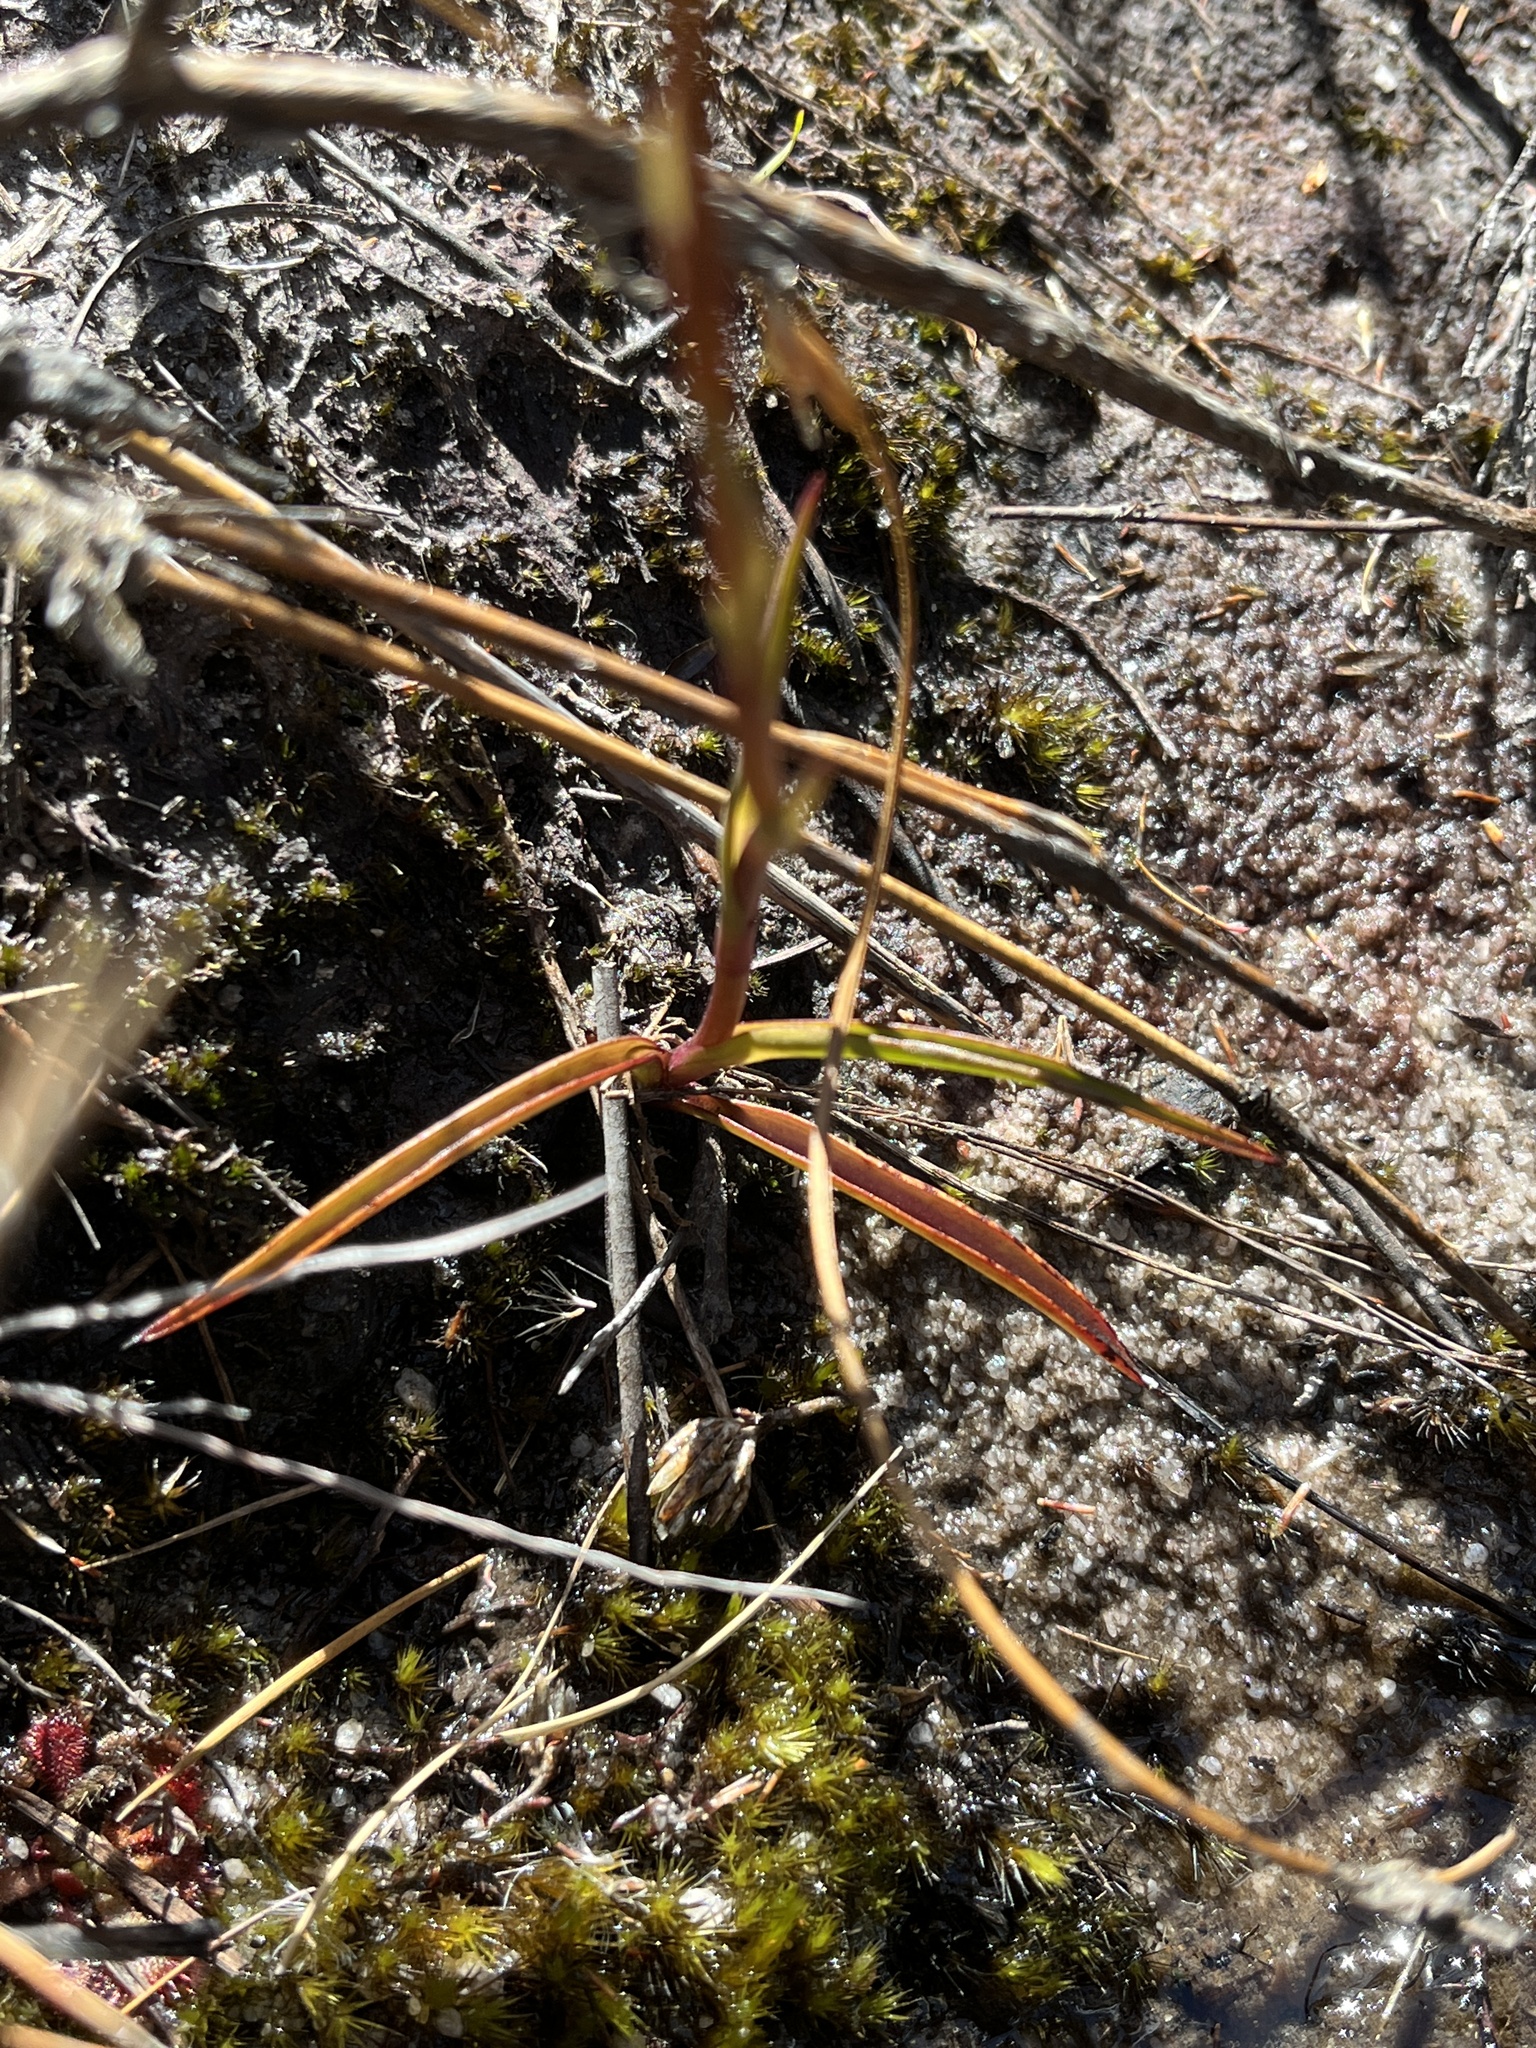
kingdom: Plantae
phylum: Tracheophyta
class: Liliopsida
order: Asparagales
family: Orchidaceae
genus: Disa
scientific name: Disa uncinata
